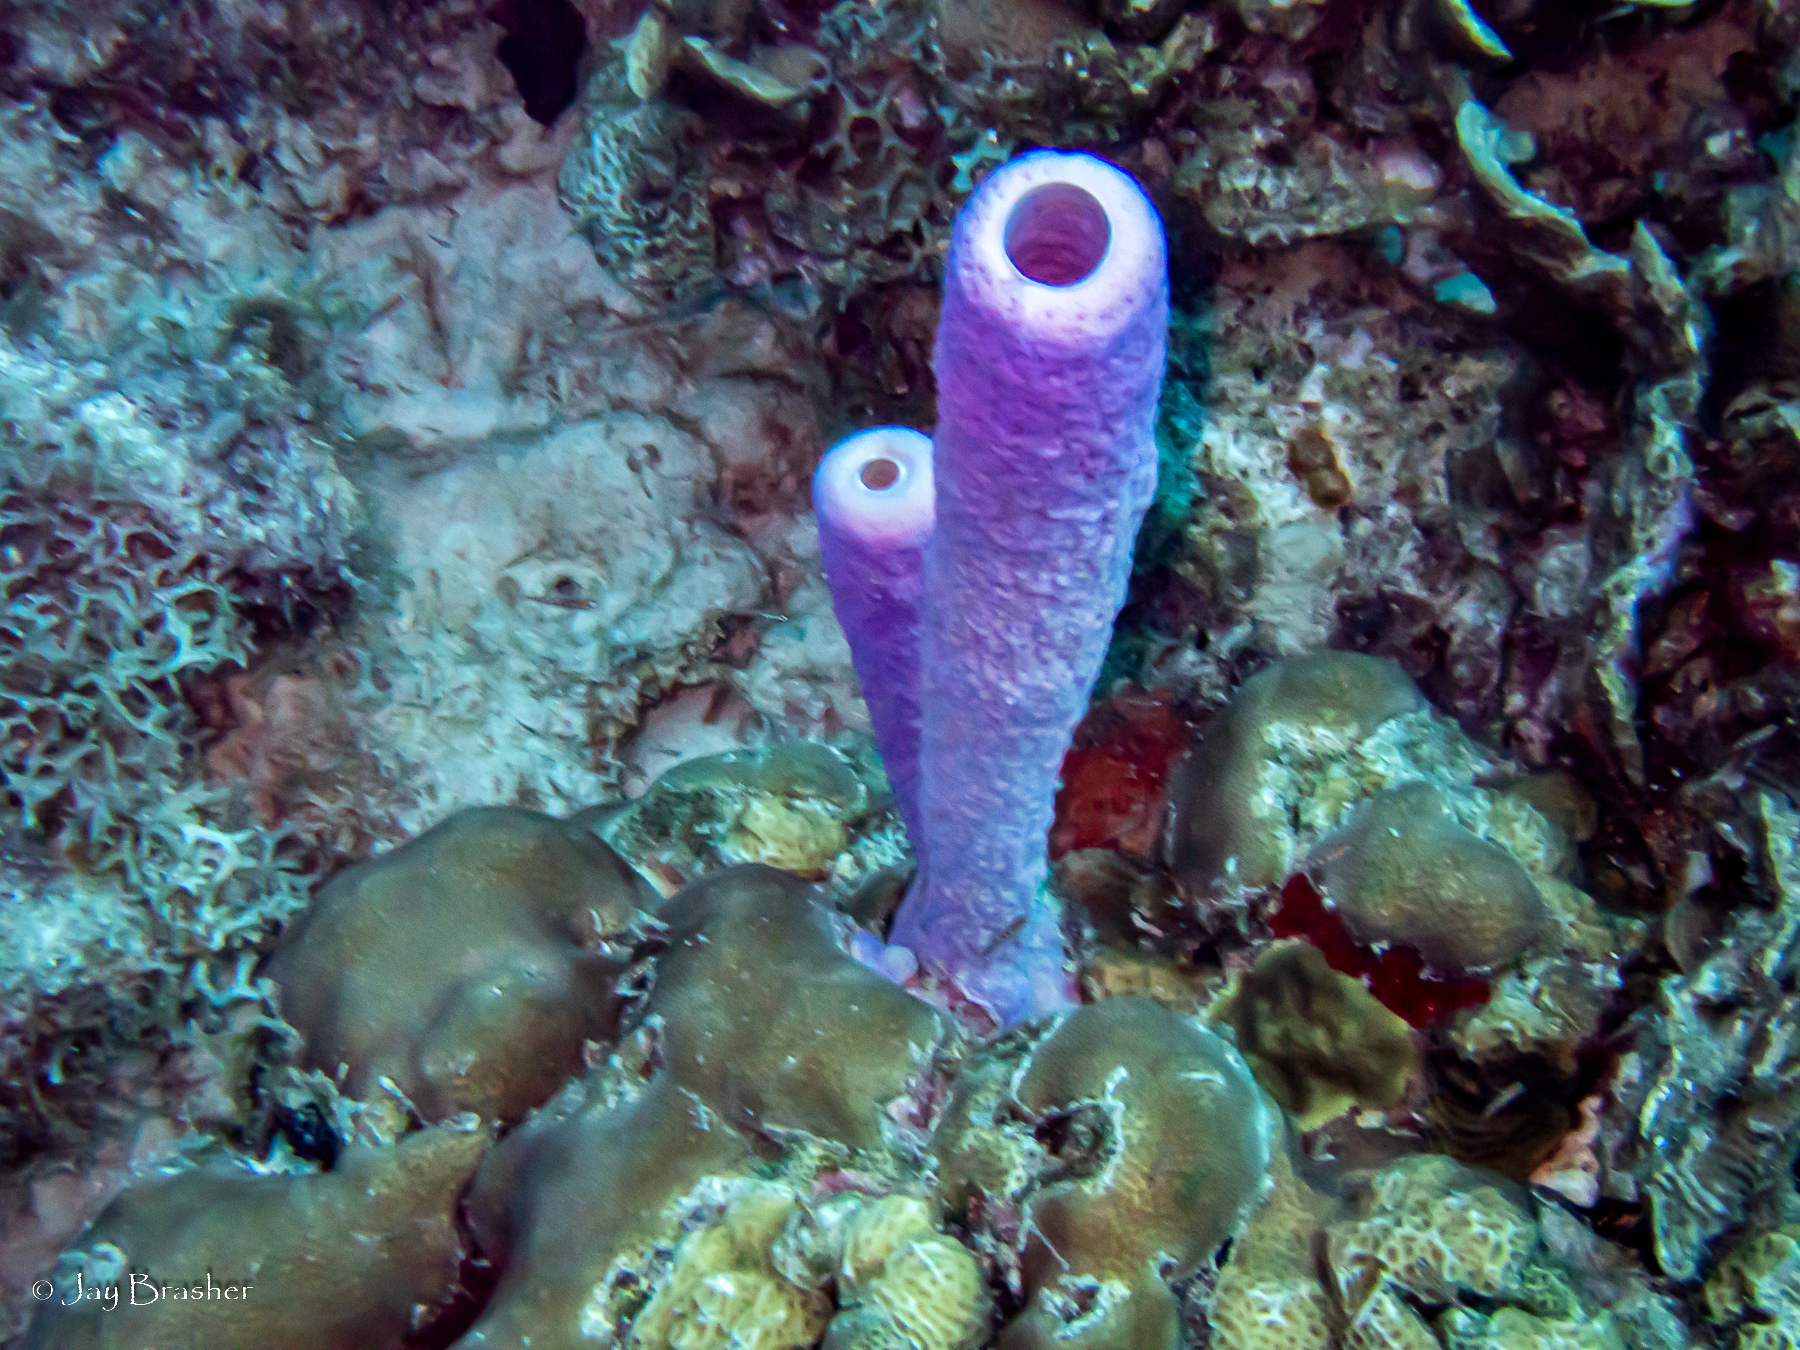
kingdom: Animalia
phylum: Porifera
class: Demospongiae
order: Verongiida
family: Aplysinidae
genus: Aplysina
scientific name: Aplysina archeri
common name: Stove-pipe sponge
